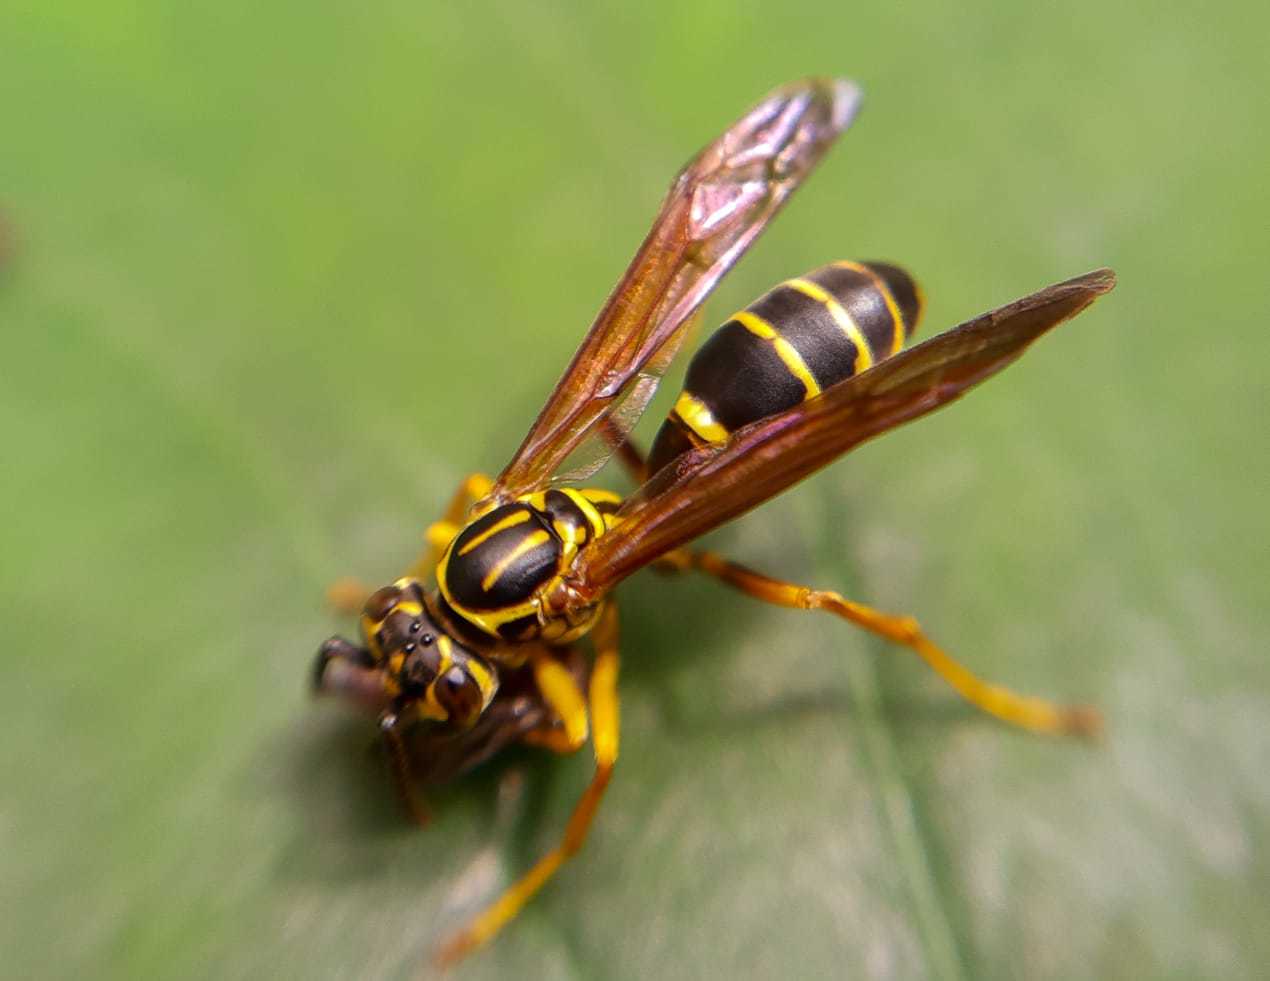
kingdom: Animalia
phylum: Arthropoda
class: Insecta
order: Hymenoptera
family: Vespidae
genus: Agelaia
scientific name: Agelaia multipicta
